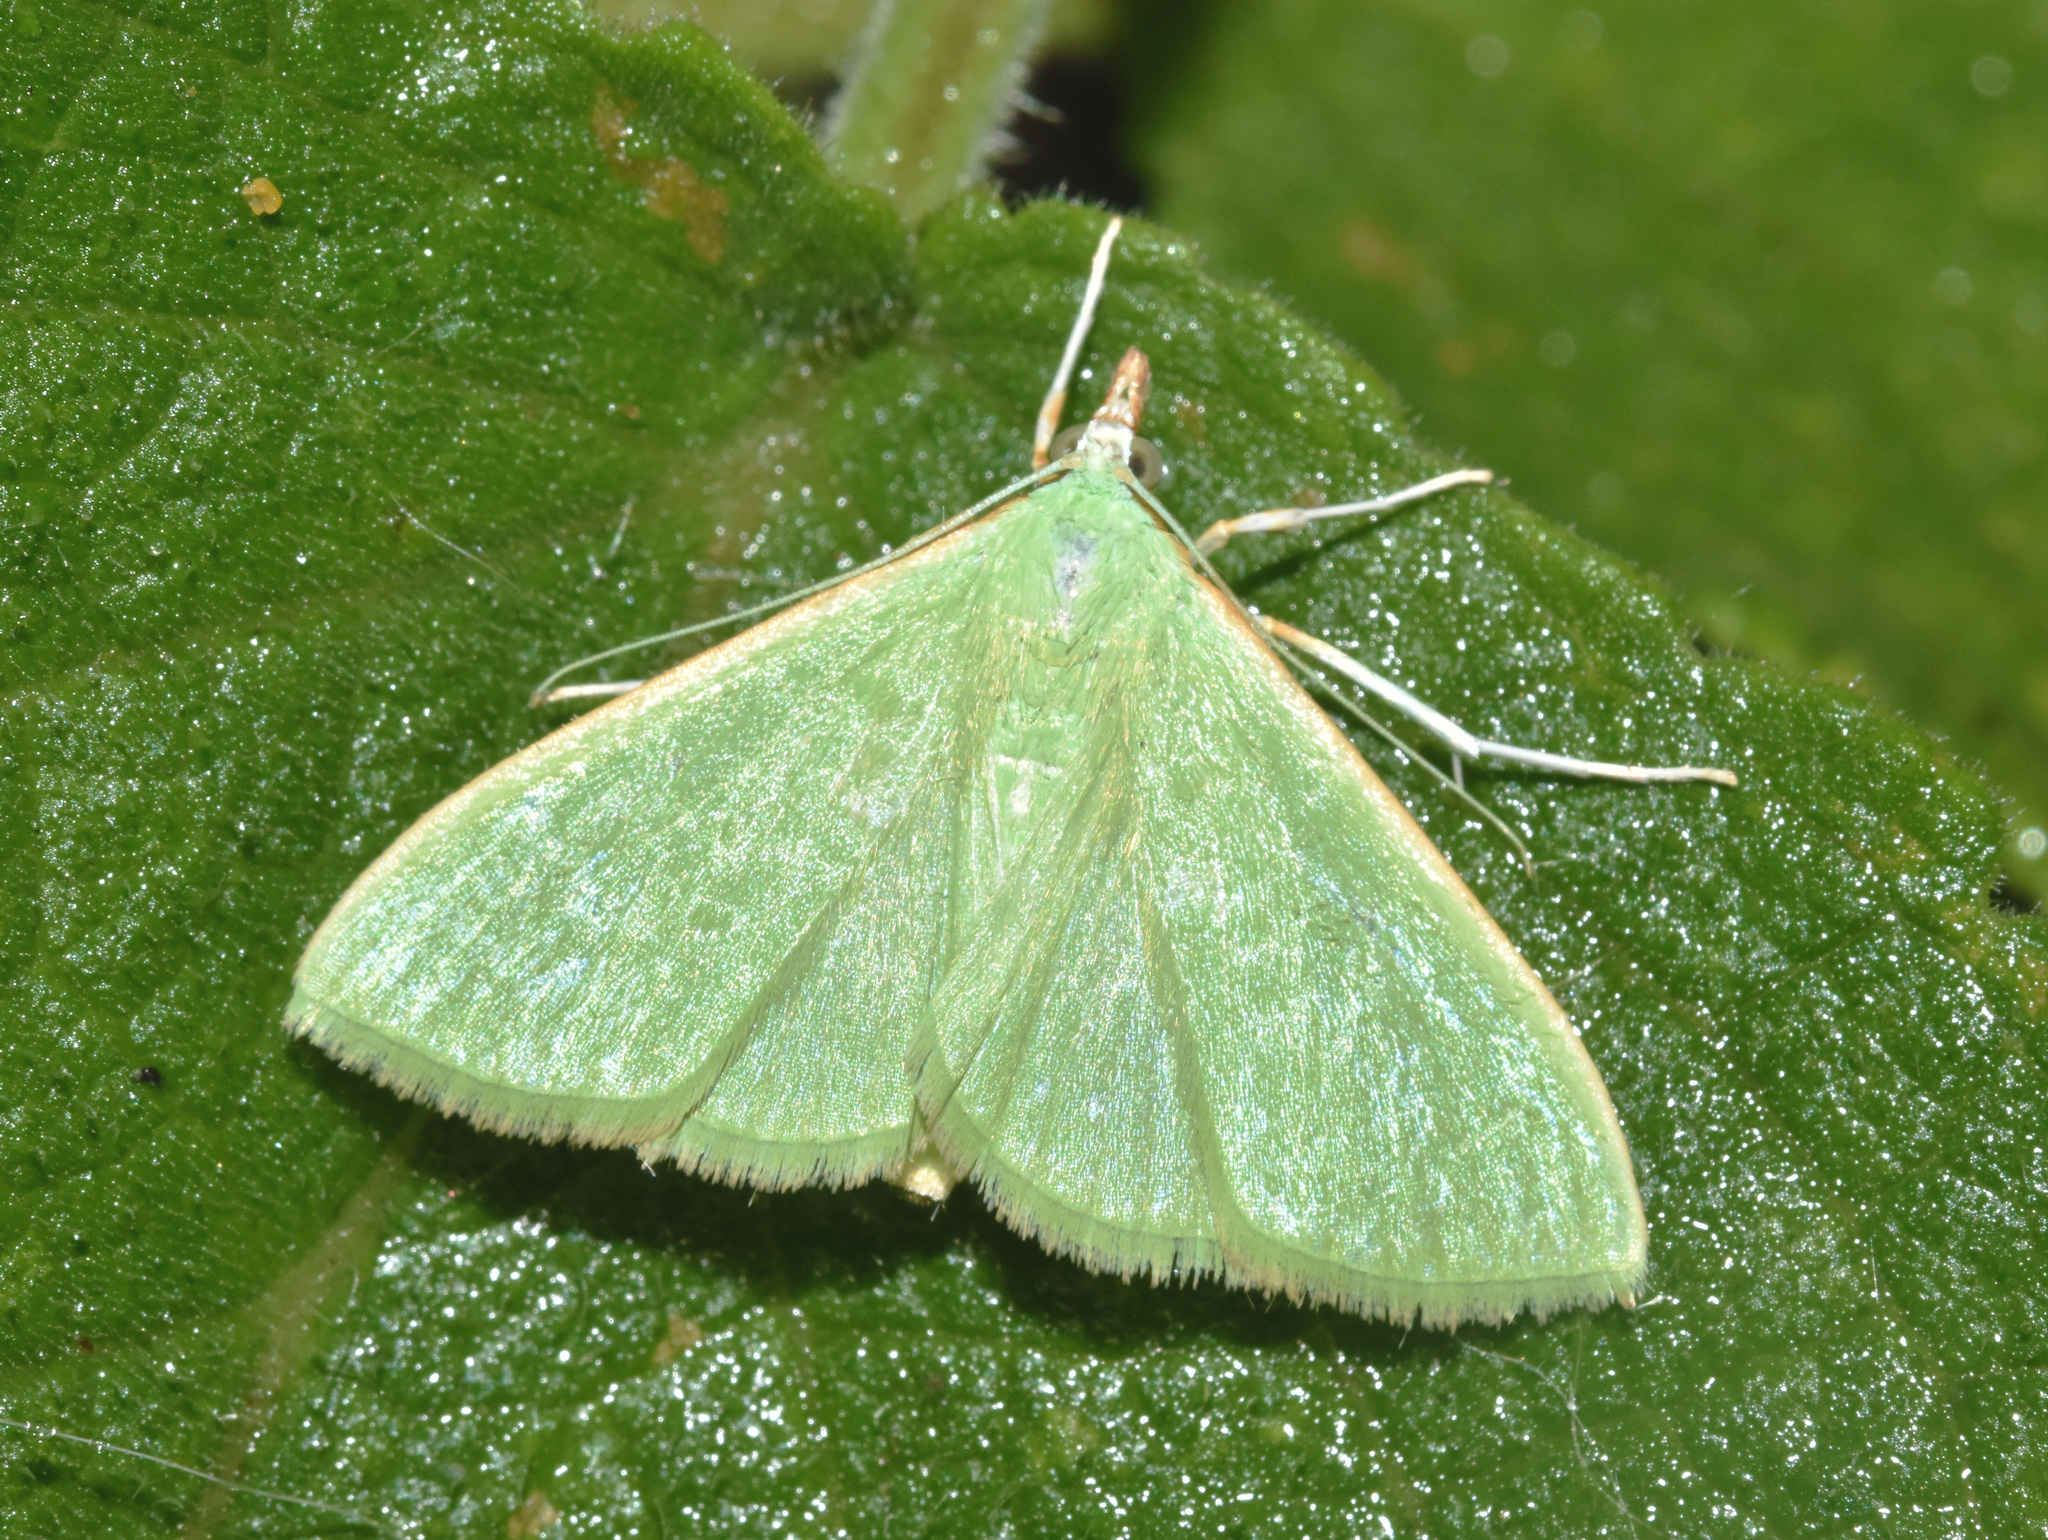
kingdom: Animalia
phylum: Arthropoda
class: Insecta
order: Lepidoptera
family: Crambidae
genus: Parotis
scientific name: Parotis baldersalis
